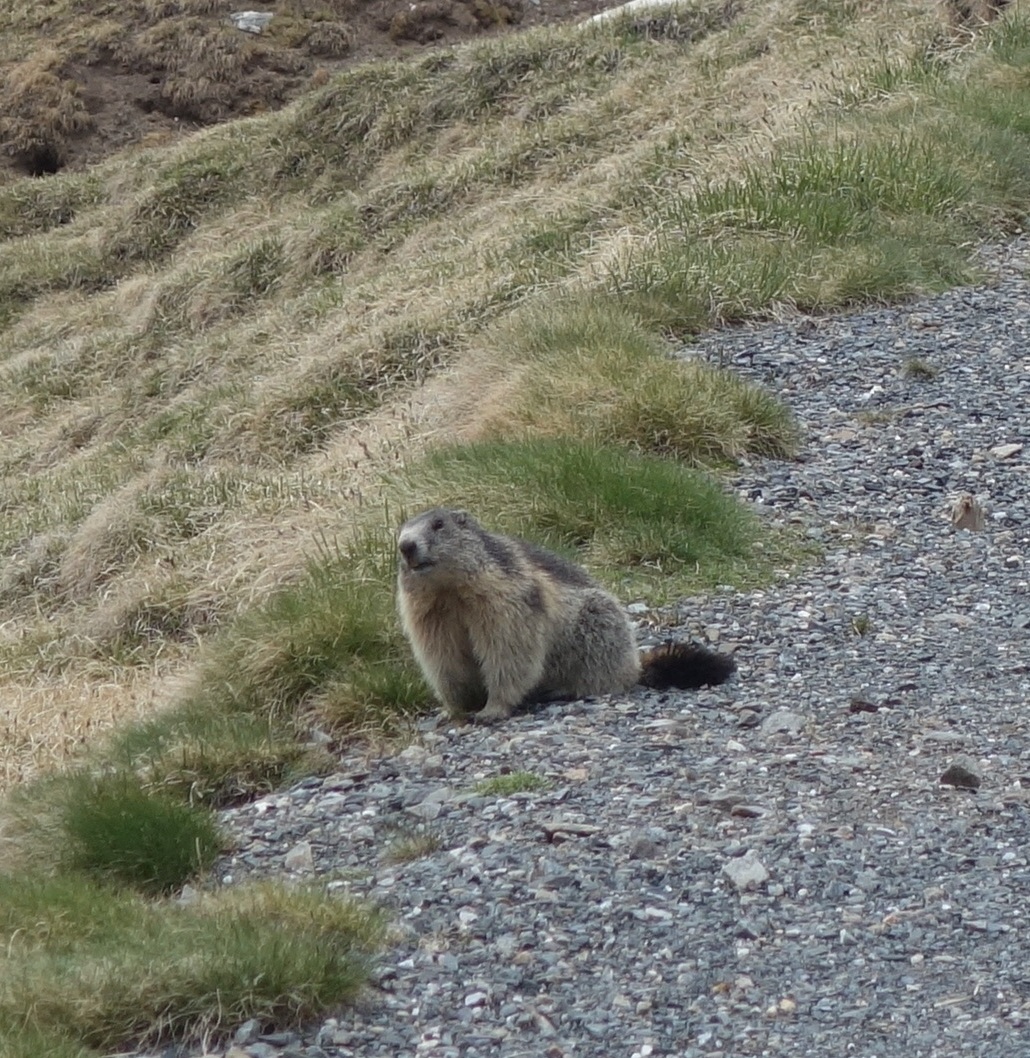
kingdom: Animalia
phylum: Chordata
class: Mammalia
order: Rodentia
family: Sciuridae
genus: Marmota
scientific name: Marmota marmota
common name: Alpine marmot
